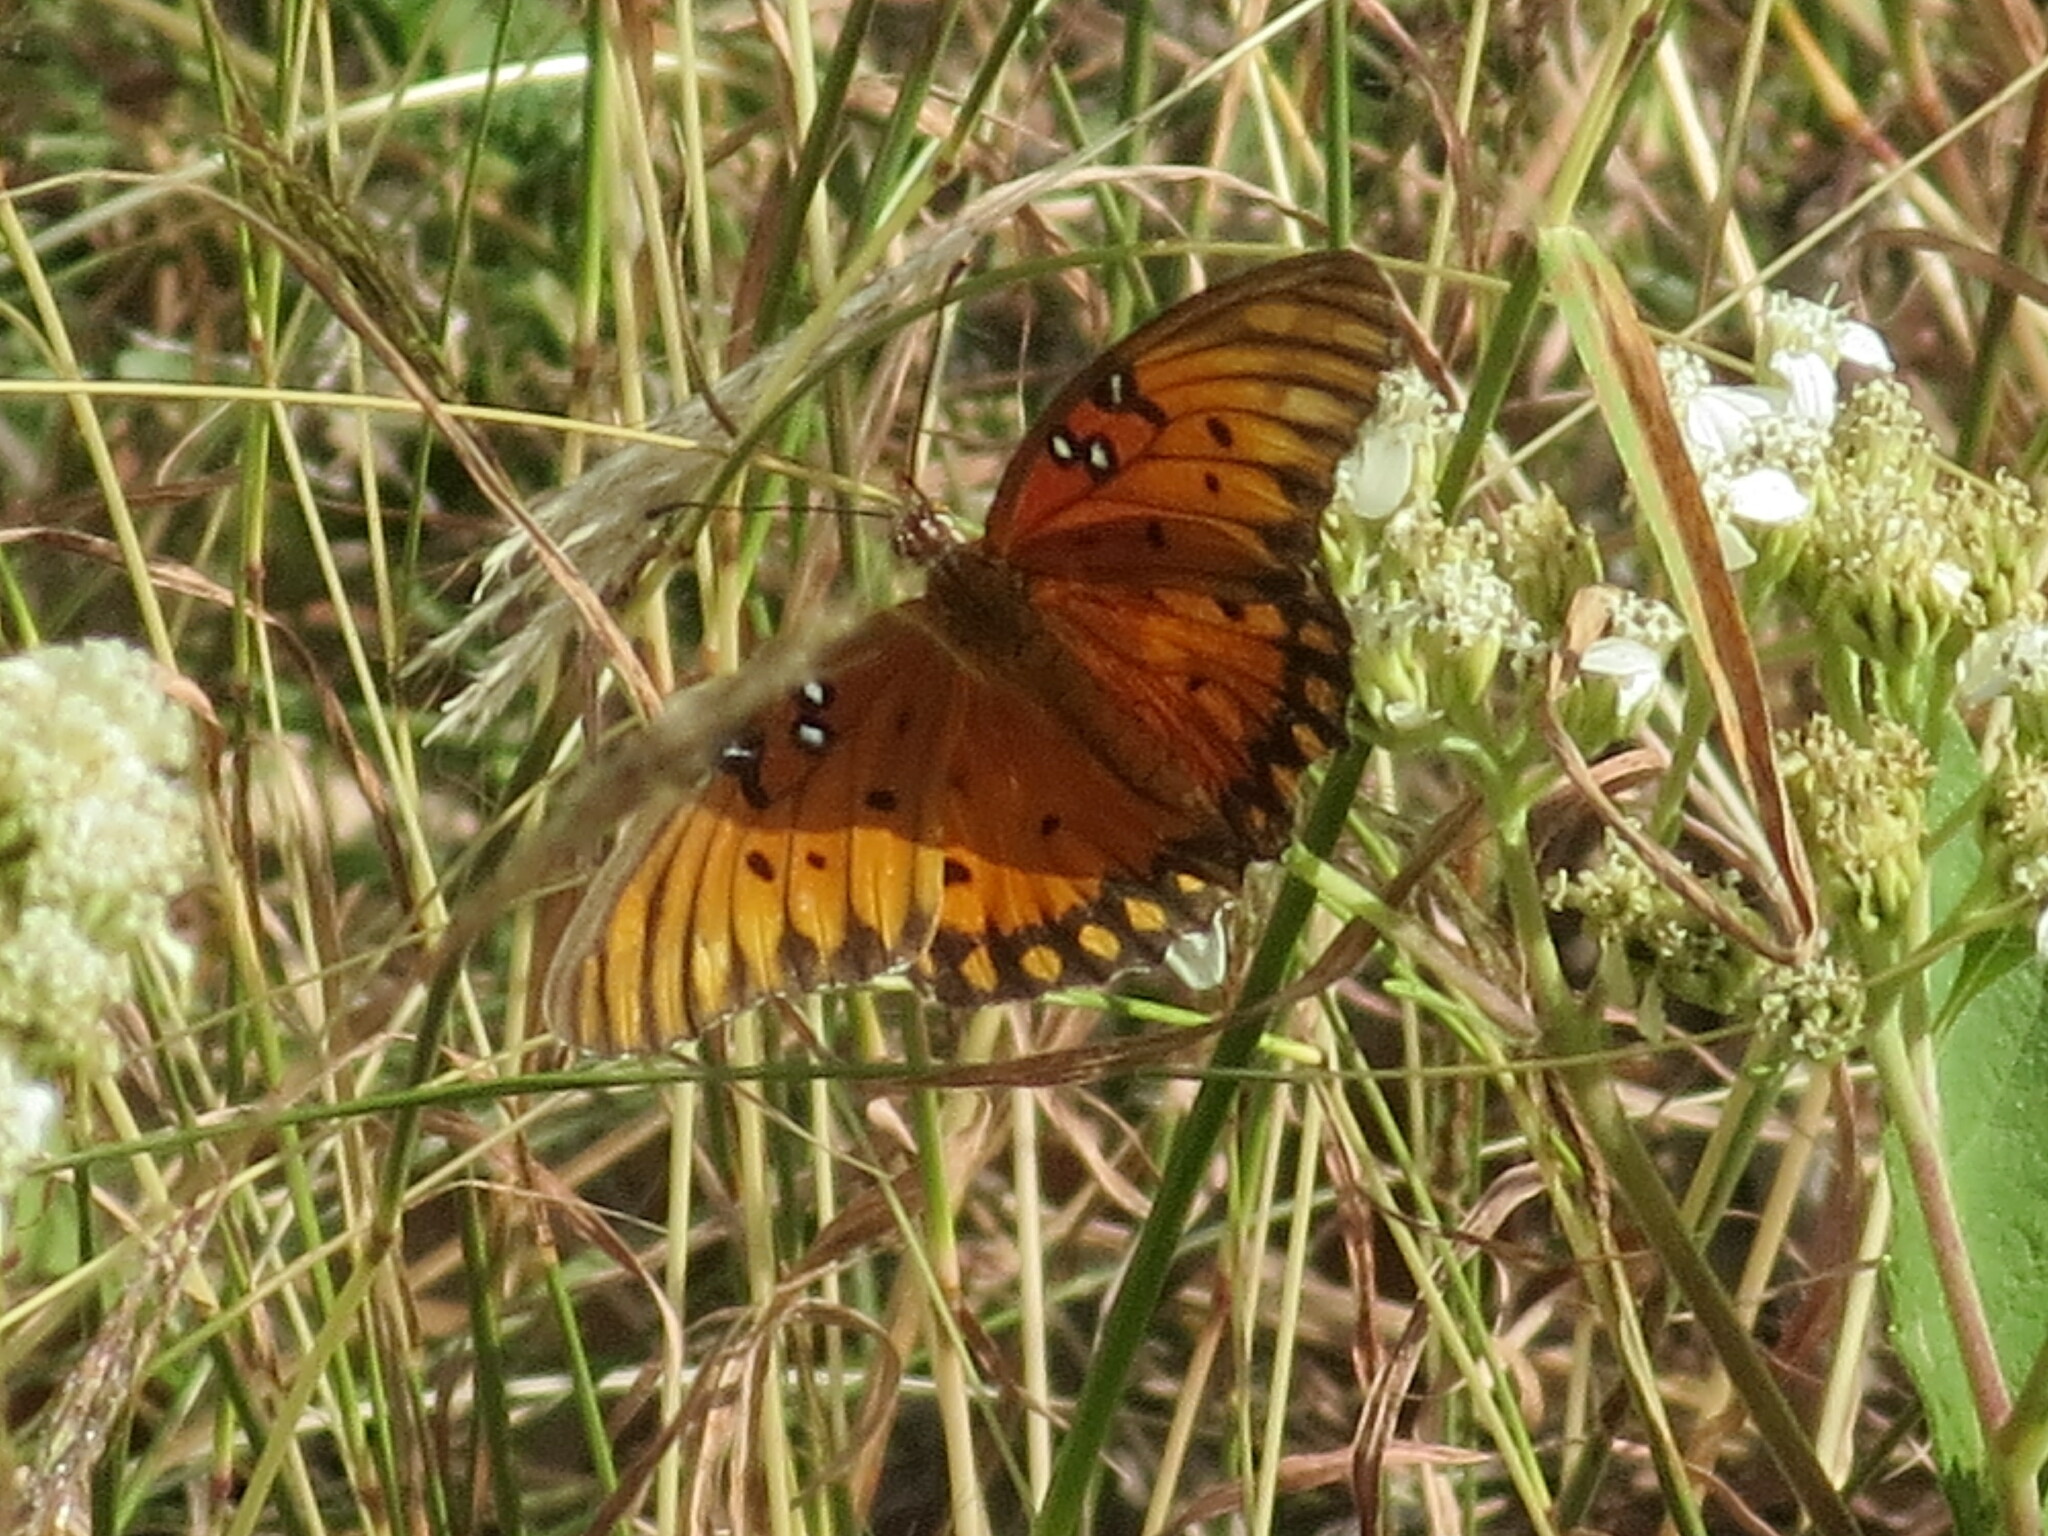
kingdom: Animalia
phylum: Arthropoda
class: Insecta
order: Lepidoptera
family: Nymphalidae
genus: Dione
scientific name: Dione vanillae
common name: Gulf fritillary
